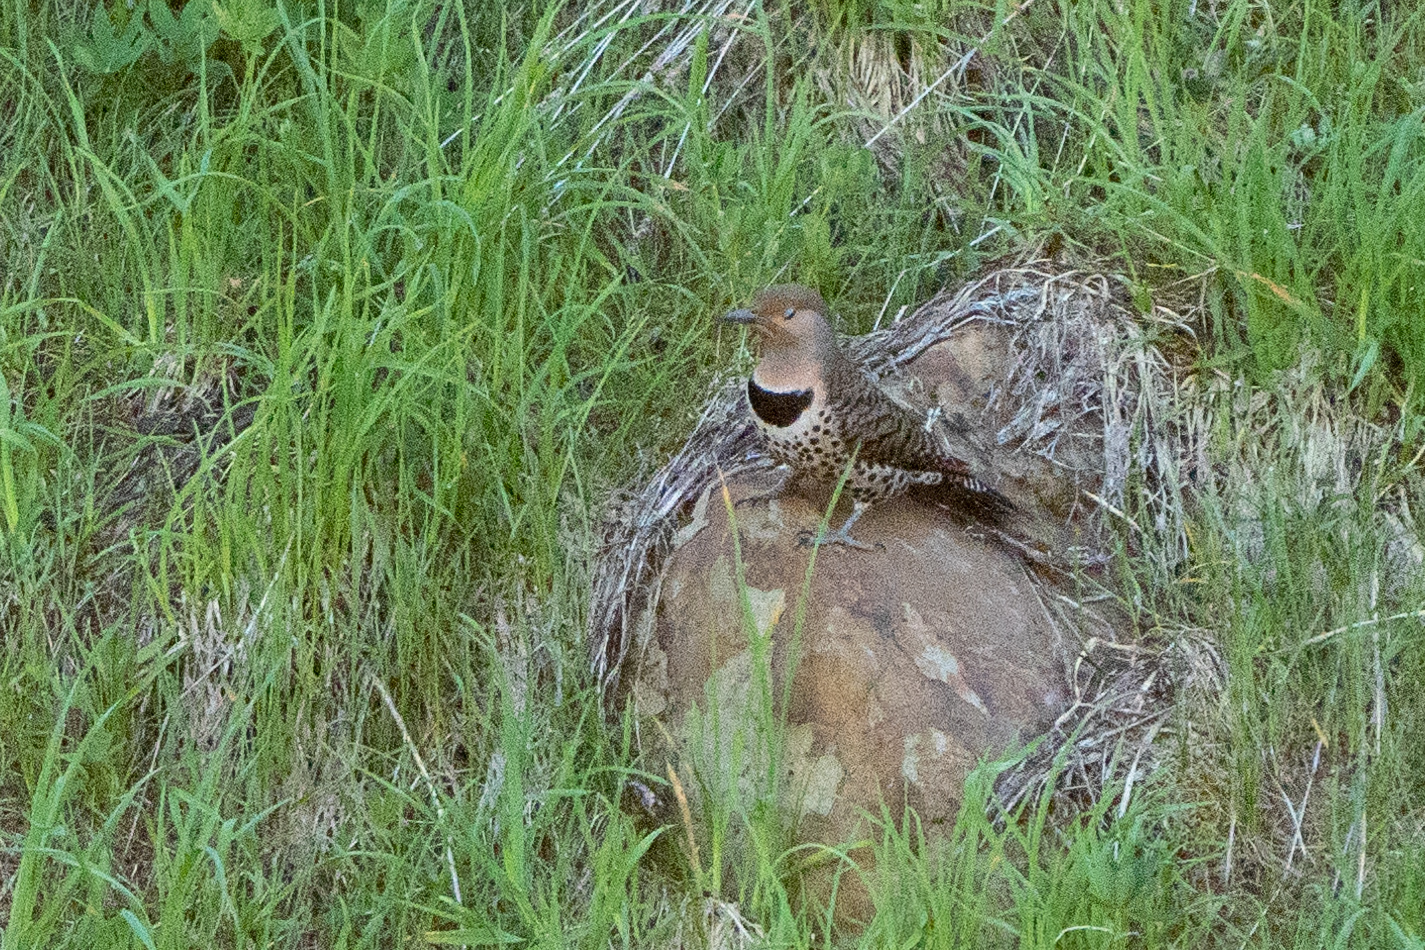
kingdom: Animalia
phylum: Chordata
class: Aves
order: Piciformes
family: Picidae
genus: Colaptes
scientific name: Colaptes auratus
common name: Northern flicker
